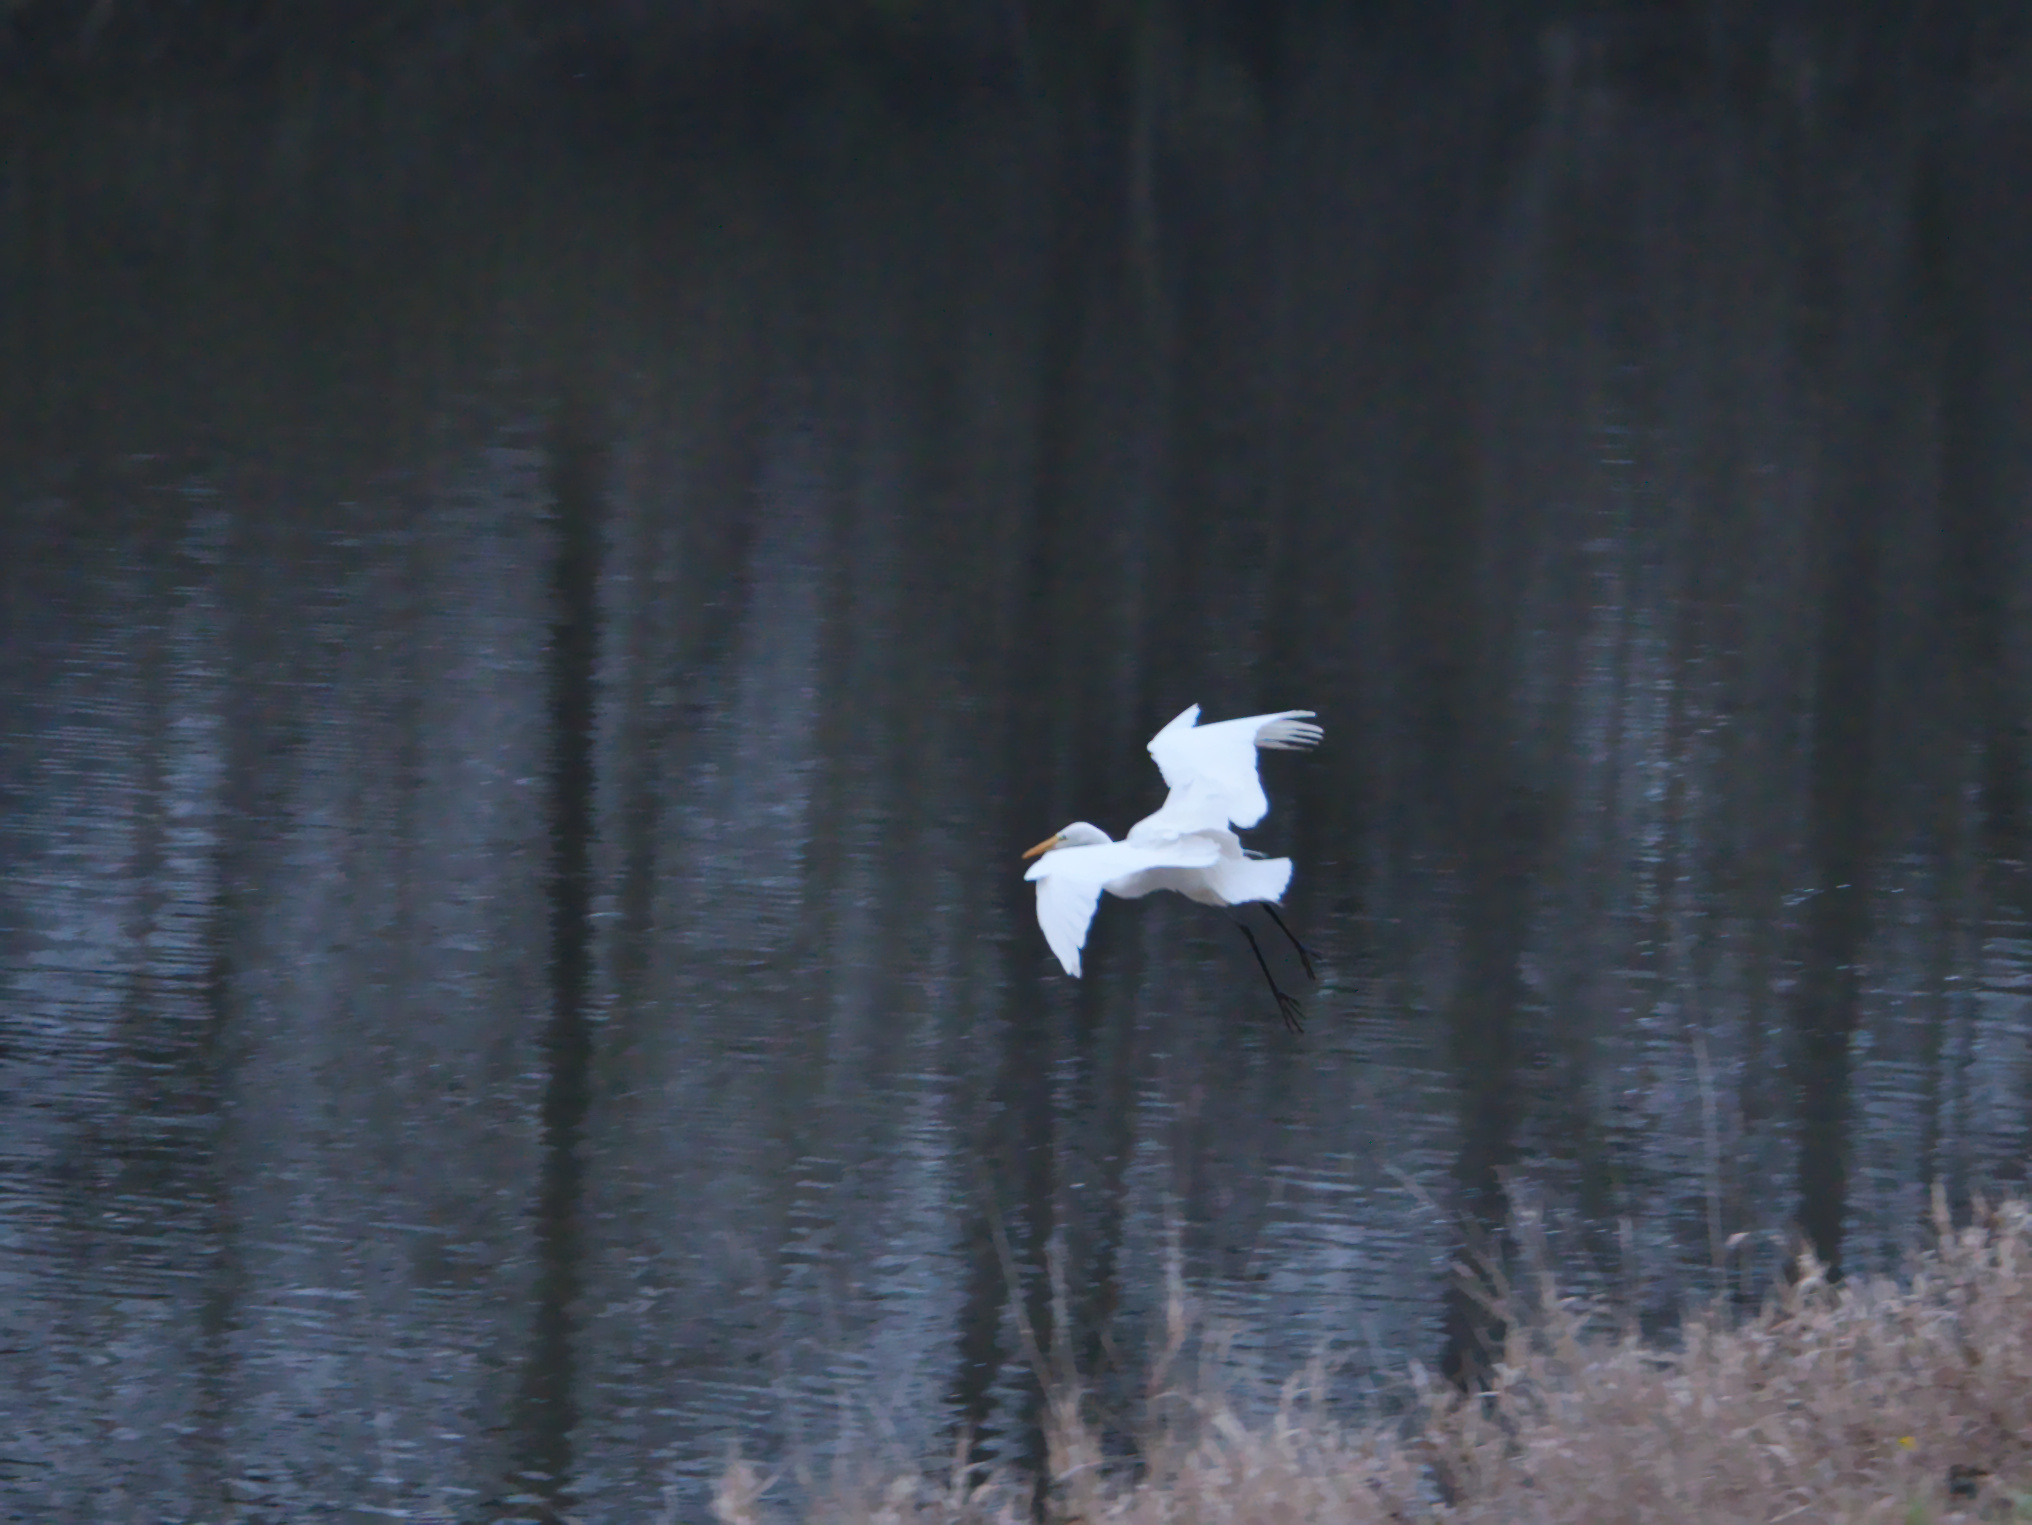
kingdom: Animalia
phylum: Chordata
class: Aves
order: Pelecaniformes
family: Ardeidae
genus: Ardea
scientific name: Ardea alba
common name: Great egret
